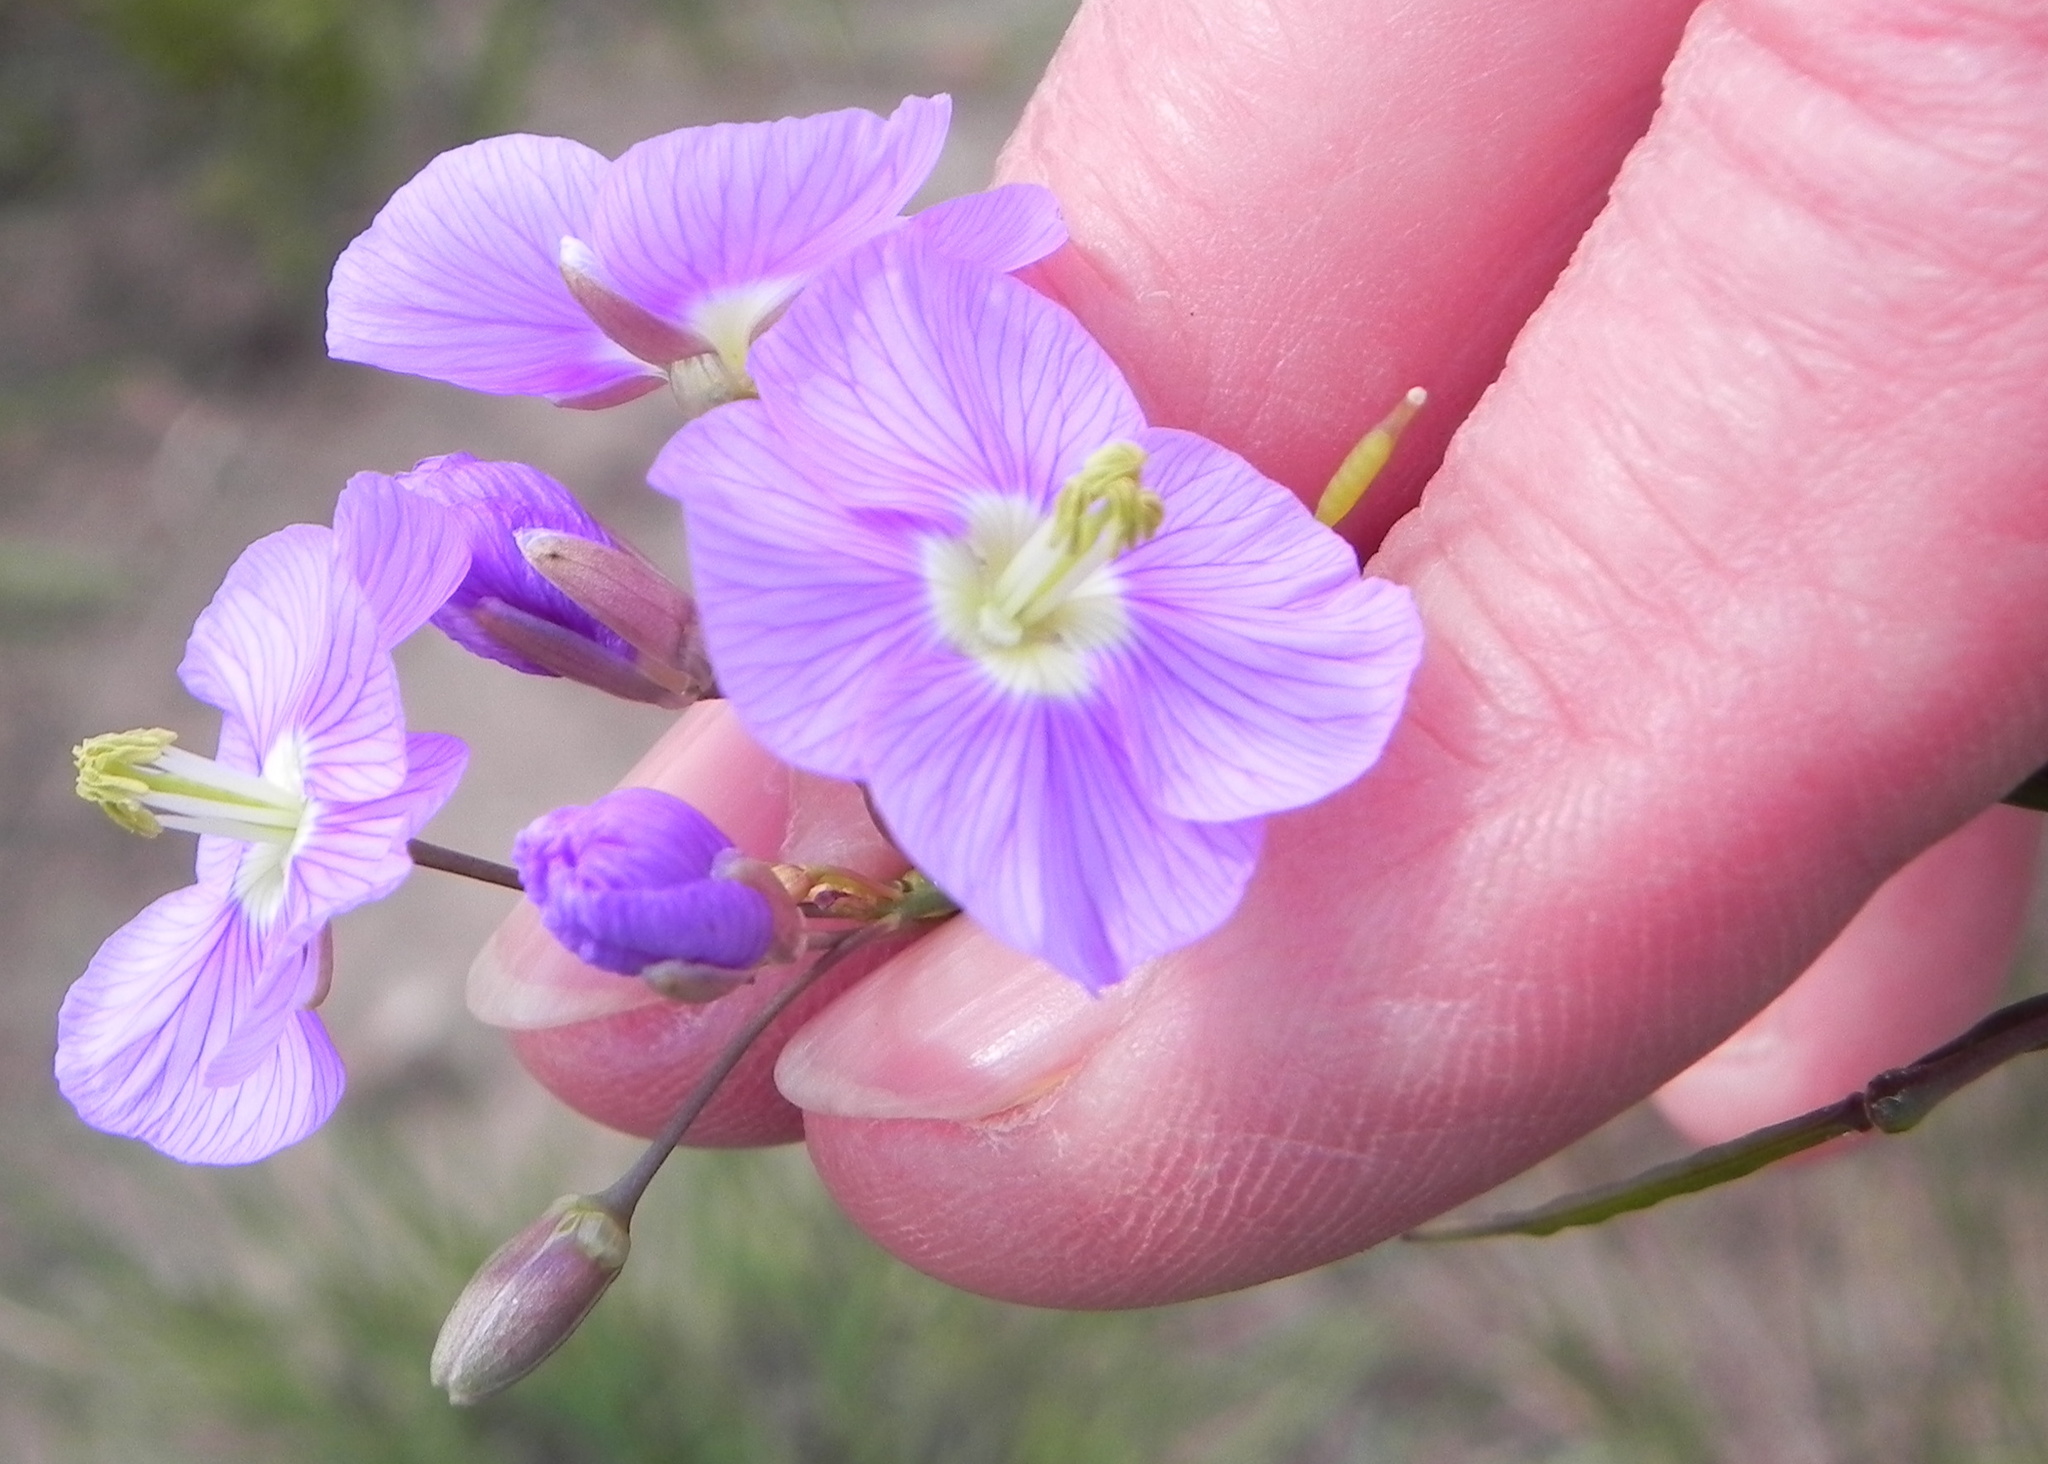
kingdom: Plantae
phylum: Tracheophyta
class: Magnoliopsida
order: Brassicales
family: Brassicaceae
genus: Heliophila
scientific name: Heliophila rigidiuscula
